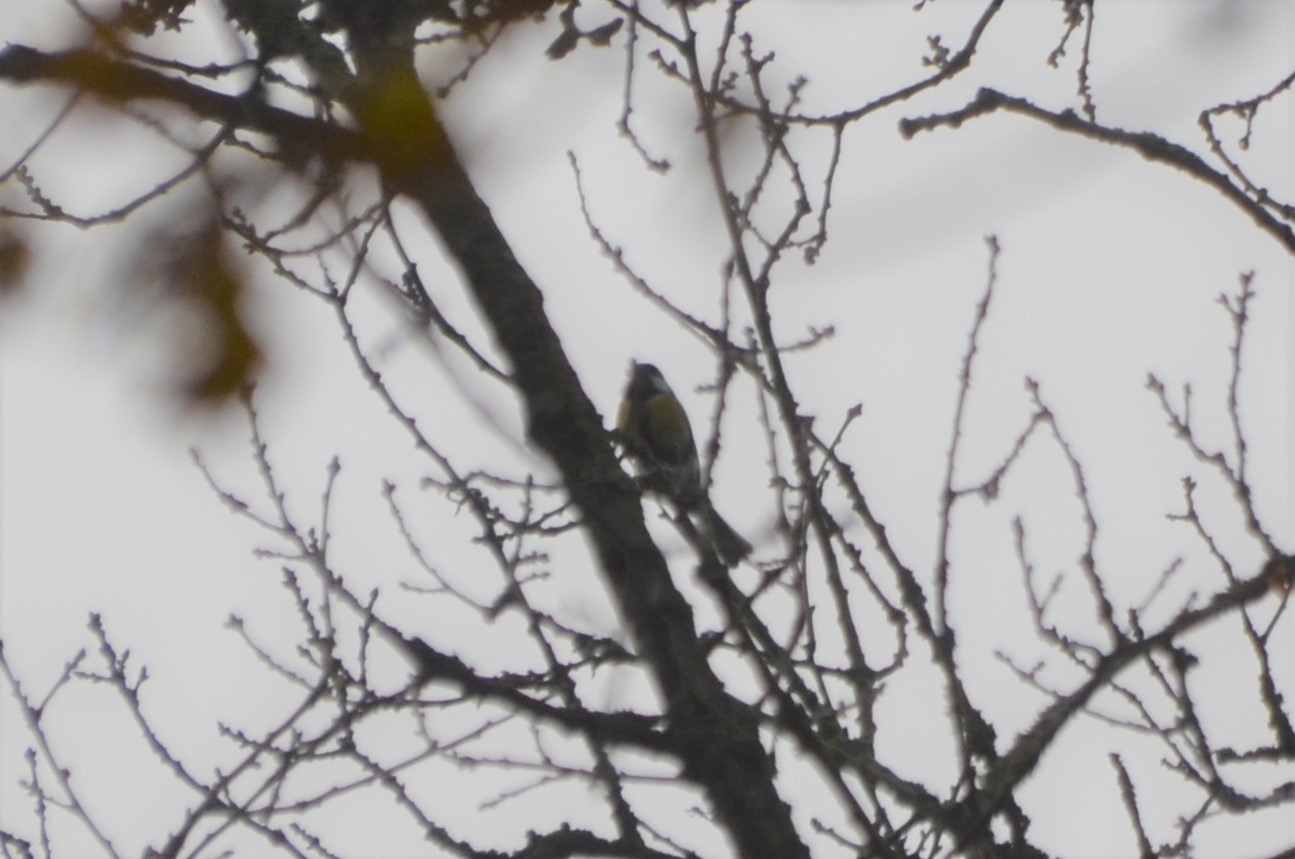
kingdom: Animalia
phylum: Chordata
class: Aves
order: Passeriformes
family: Paridae
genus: Parus
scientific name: Parus major
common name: Great tit
